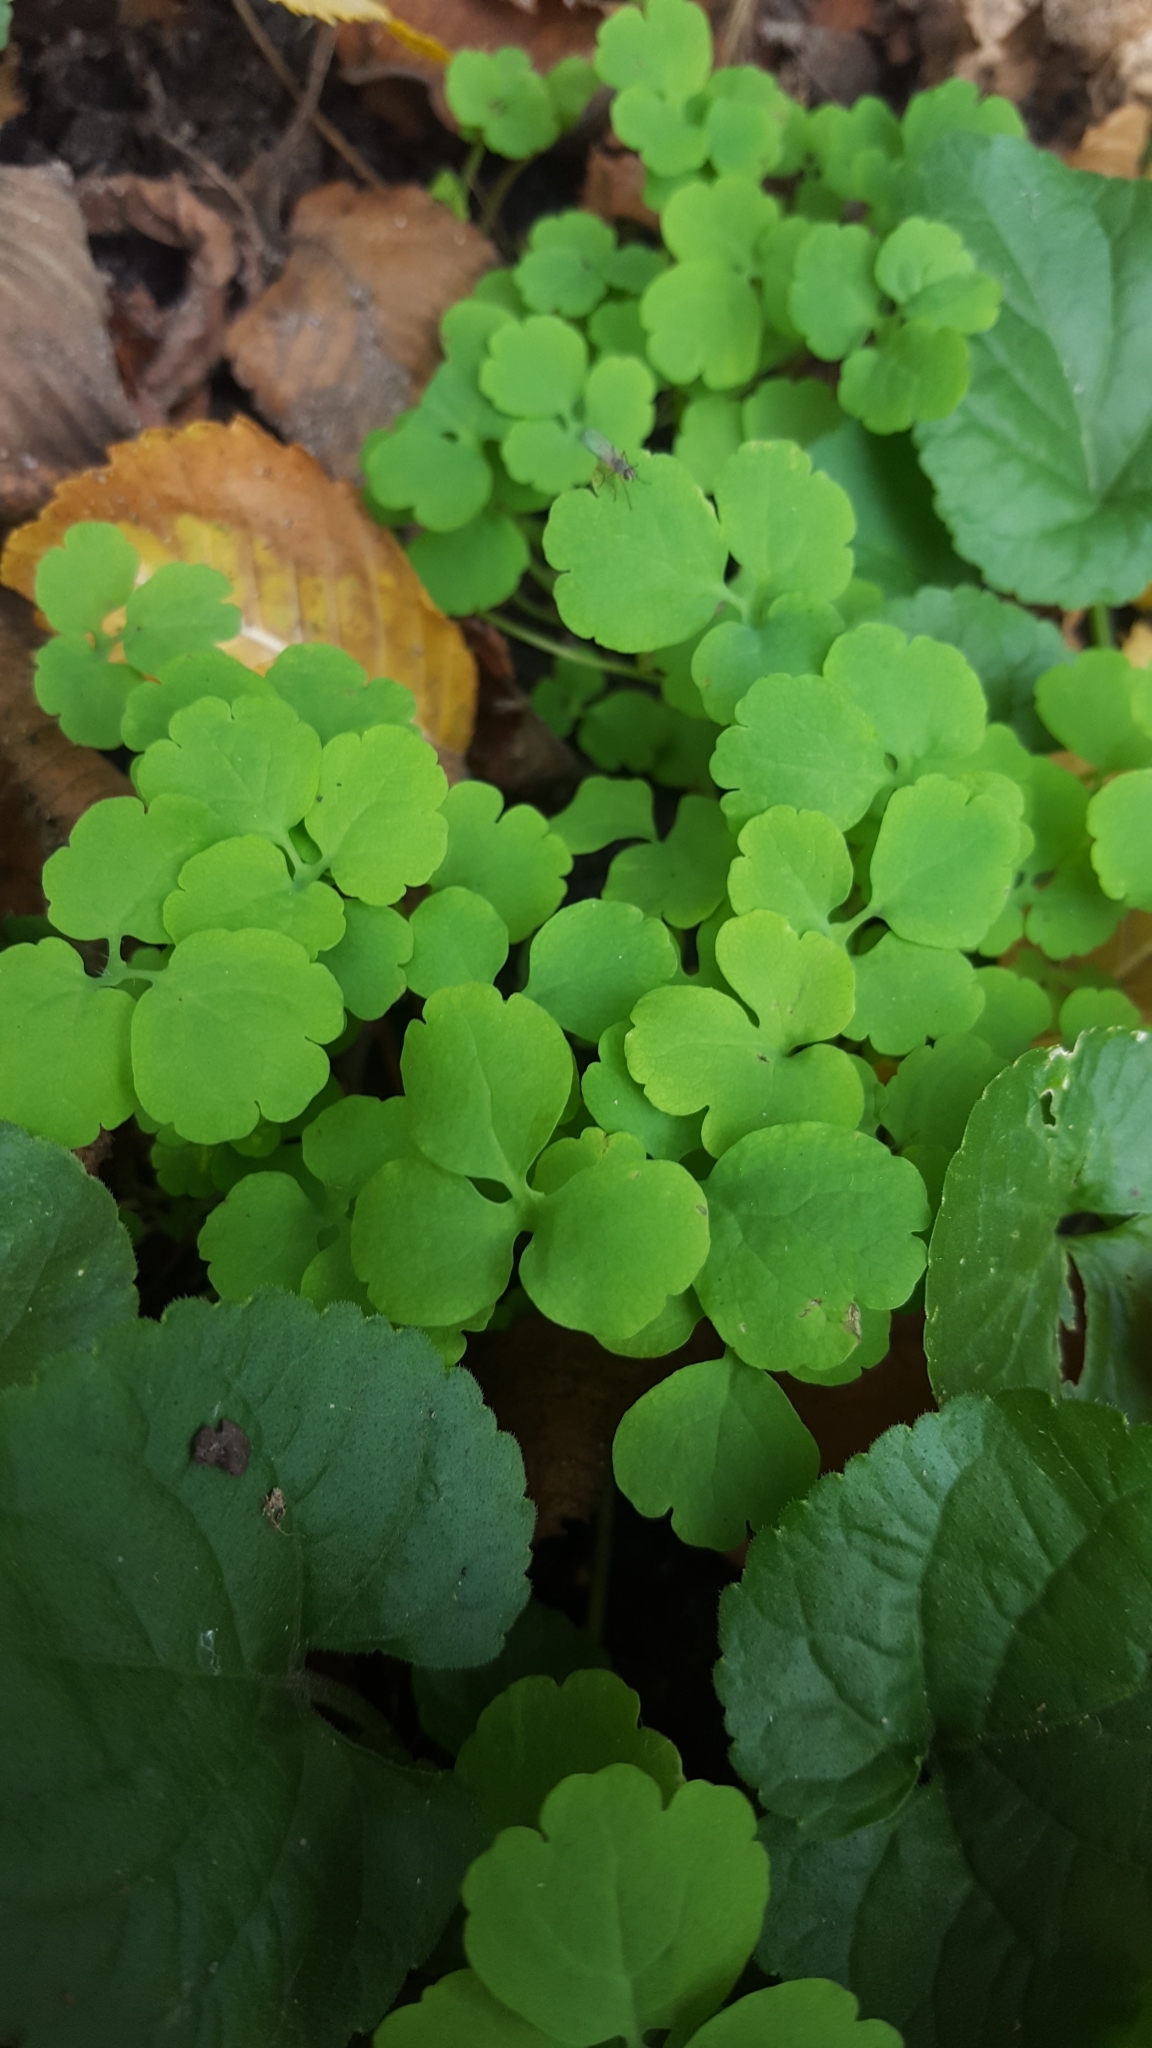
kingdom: Plantae
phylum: Tracheophyta
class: Magnoliopsida
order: Ranunculales
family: Papaveraceae
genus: Chelidonium
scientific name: Chelidonium majus
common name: Greater celandine
